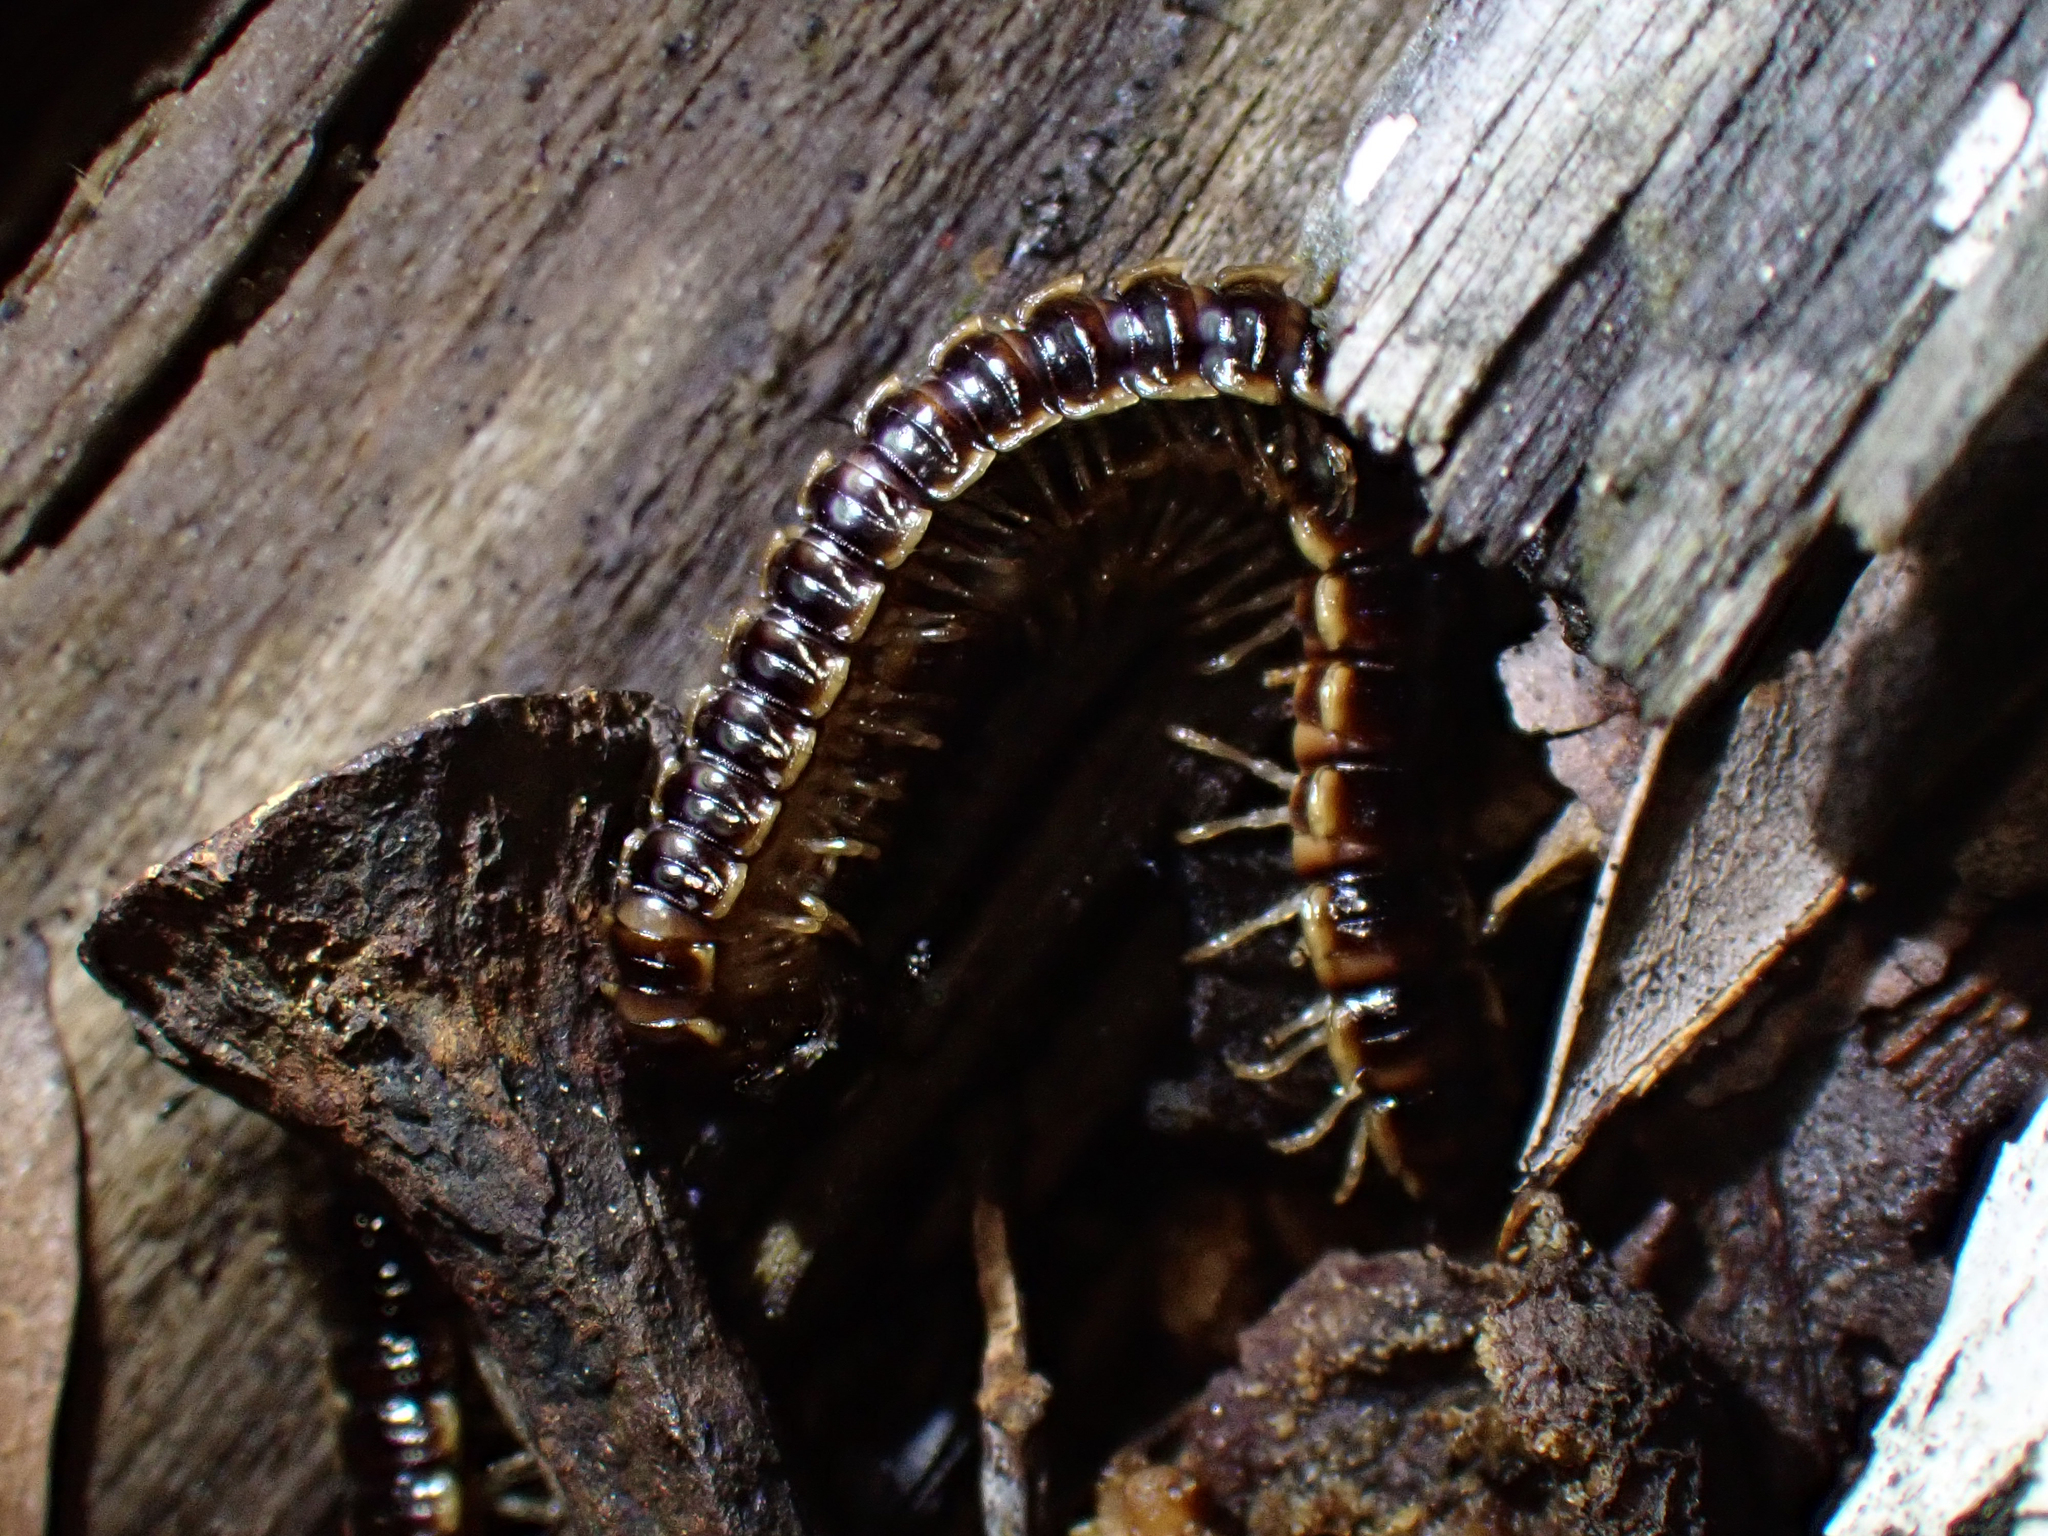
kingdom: Animalia
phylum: Arthropoda
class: Diplopoda
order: Polydesmida
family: Paradoxosomatidae
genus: Oxidus
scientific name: Oxidus gracilis
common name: Greenhouse millipede
